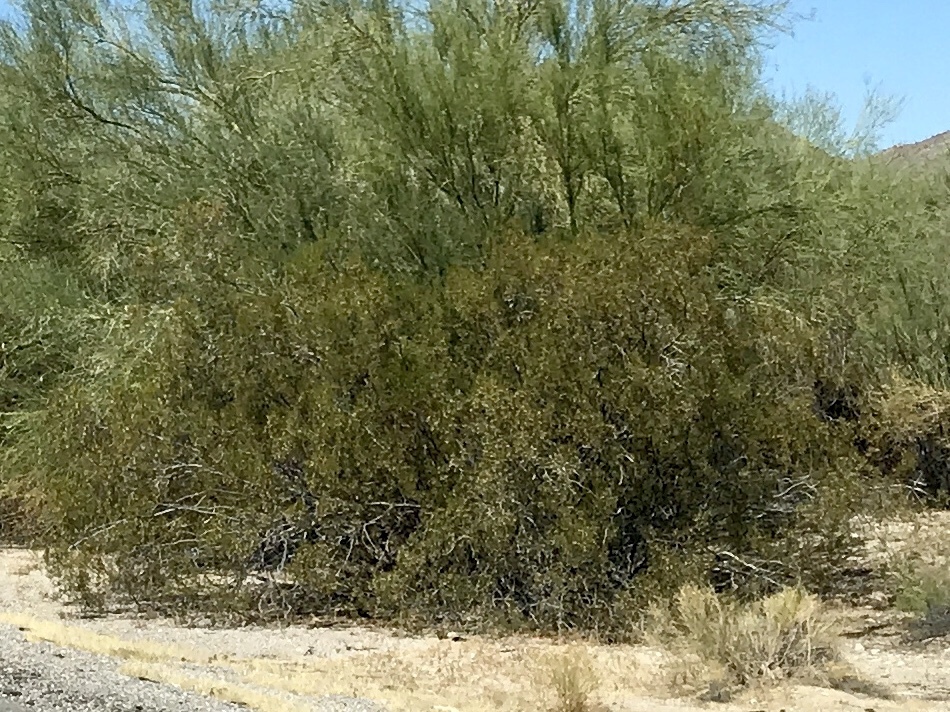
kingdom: Plantae
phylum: Tracheophyta
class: Magnoliopsida
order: Zygophyllales
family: Zygophyllaceae
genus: Larrea
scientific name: Larrea tridentata
